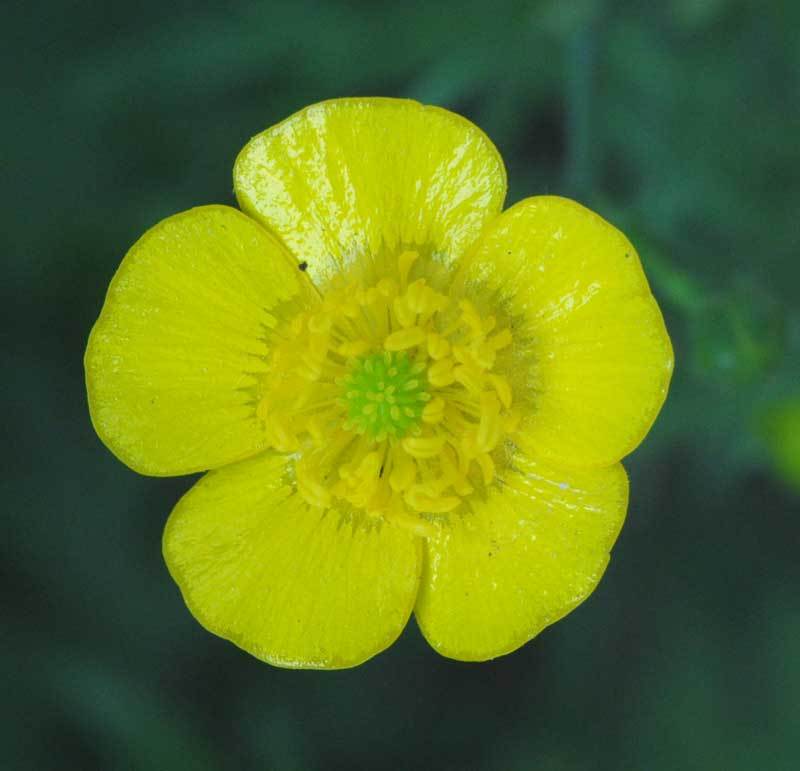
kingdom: Plantae
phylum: Tracheophyta
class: Magnoliopsida
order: Ranunculales
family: Ranunculaceae
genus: Ranunculus
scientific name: Ranunculus acris
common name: Meadow buttercup
